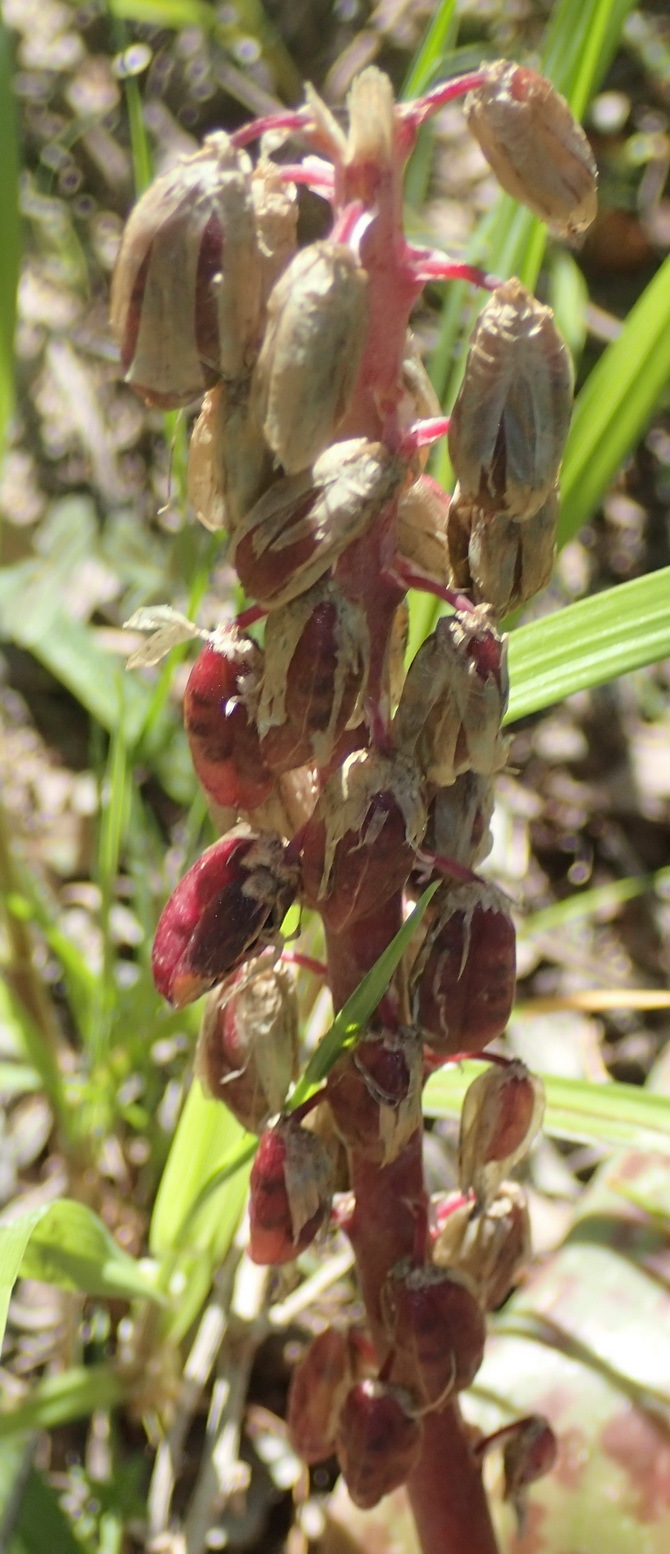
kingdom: Plantae
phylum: Tracheophyta
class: Liliopsida
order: Asparagales
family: Asparagaceae
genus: Lachenalia
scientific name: Lachenalia bulbifera
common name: Red lachenalia
